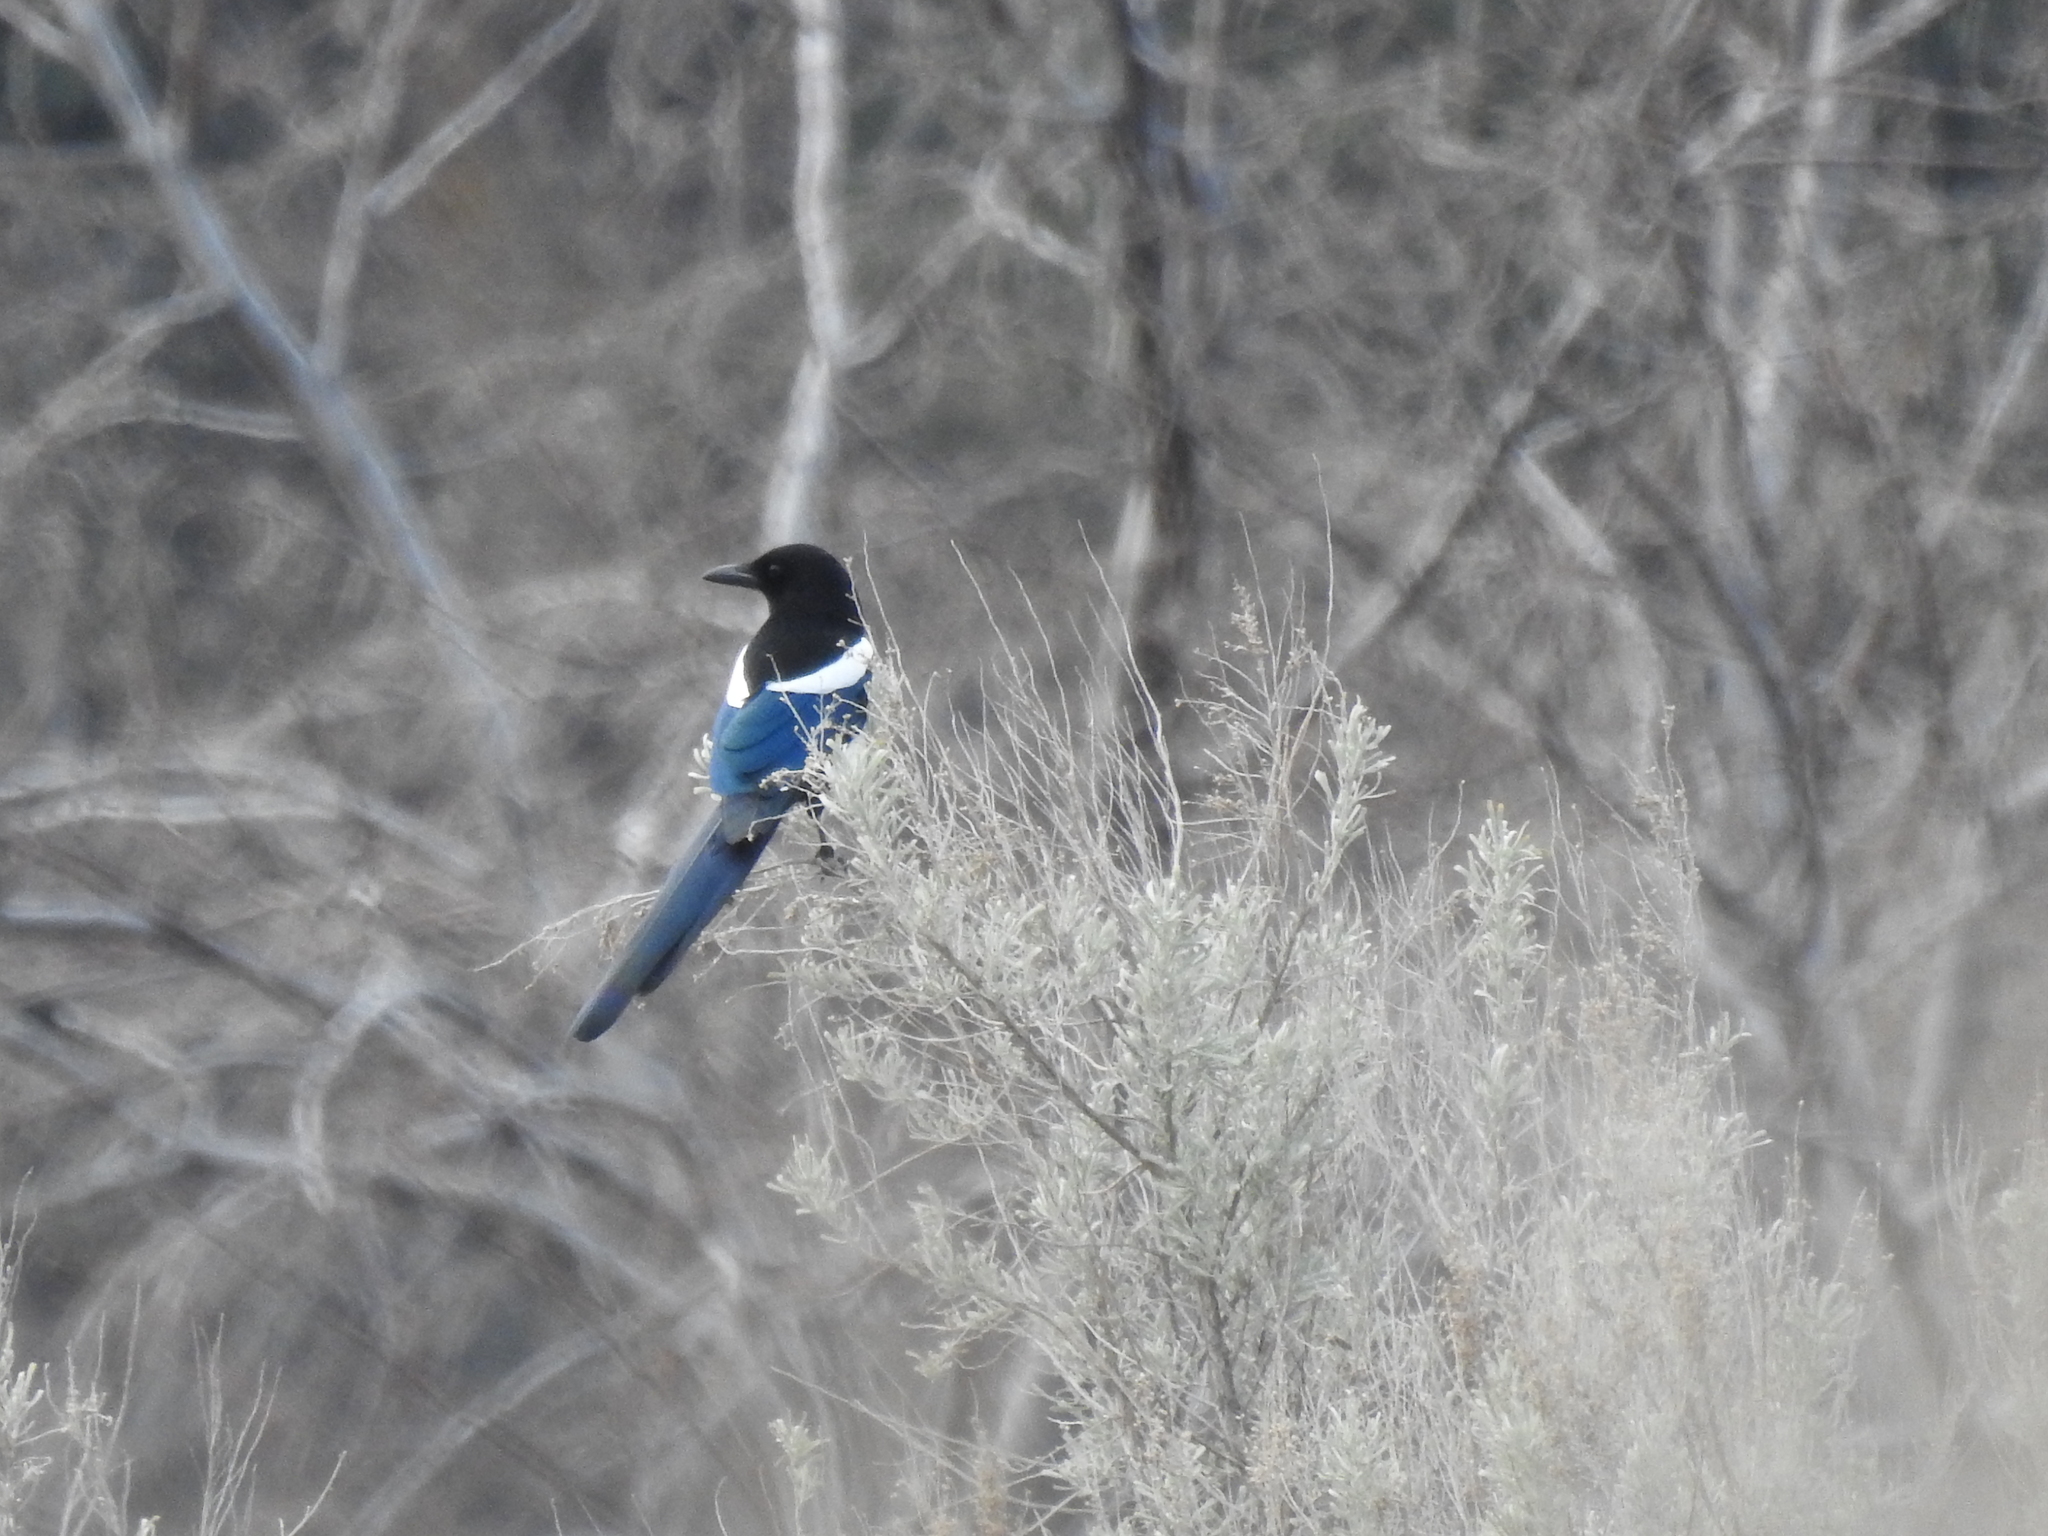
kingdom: Animalia
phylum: Chordata
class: Aves
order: Passeriformes
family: Corvidae
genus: Pica
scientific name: Pica hudsonia
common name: Black-billed magpie
